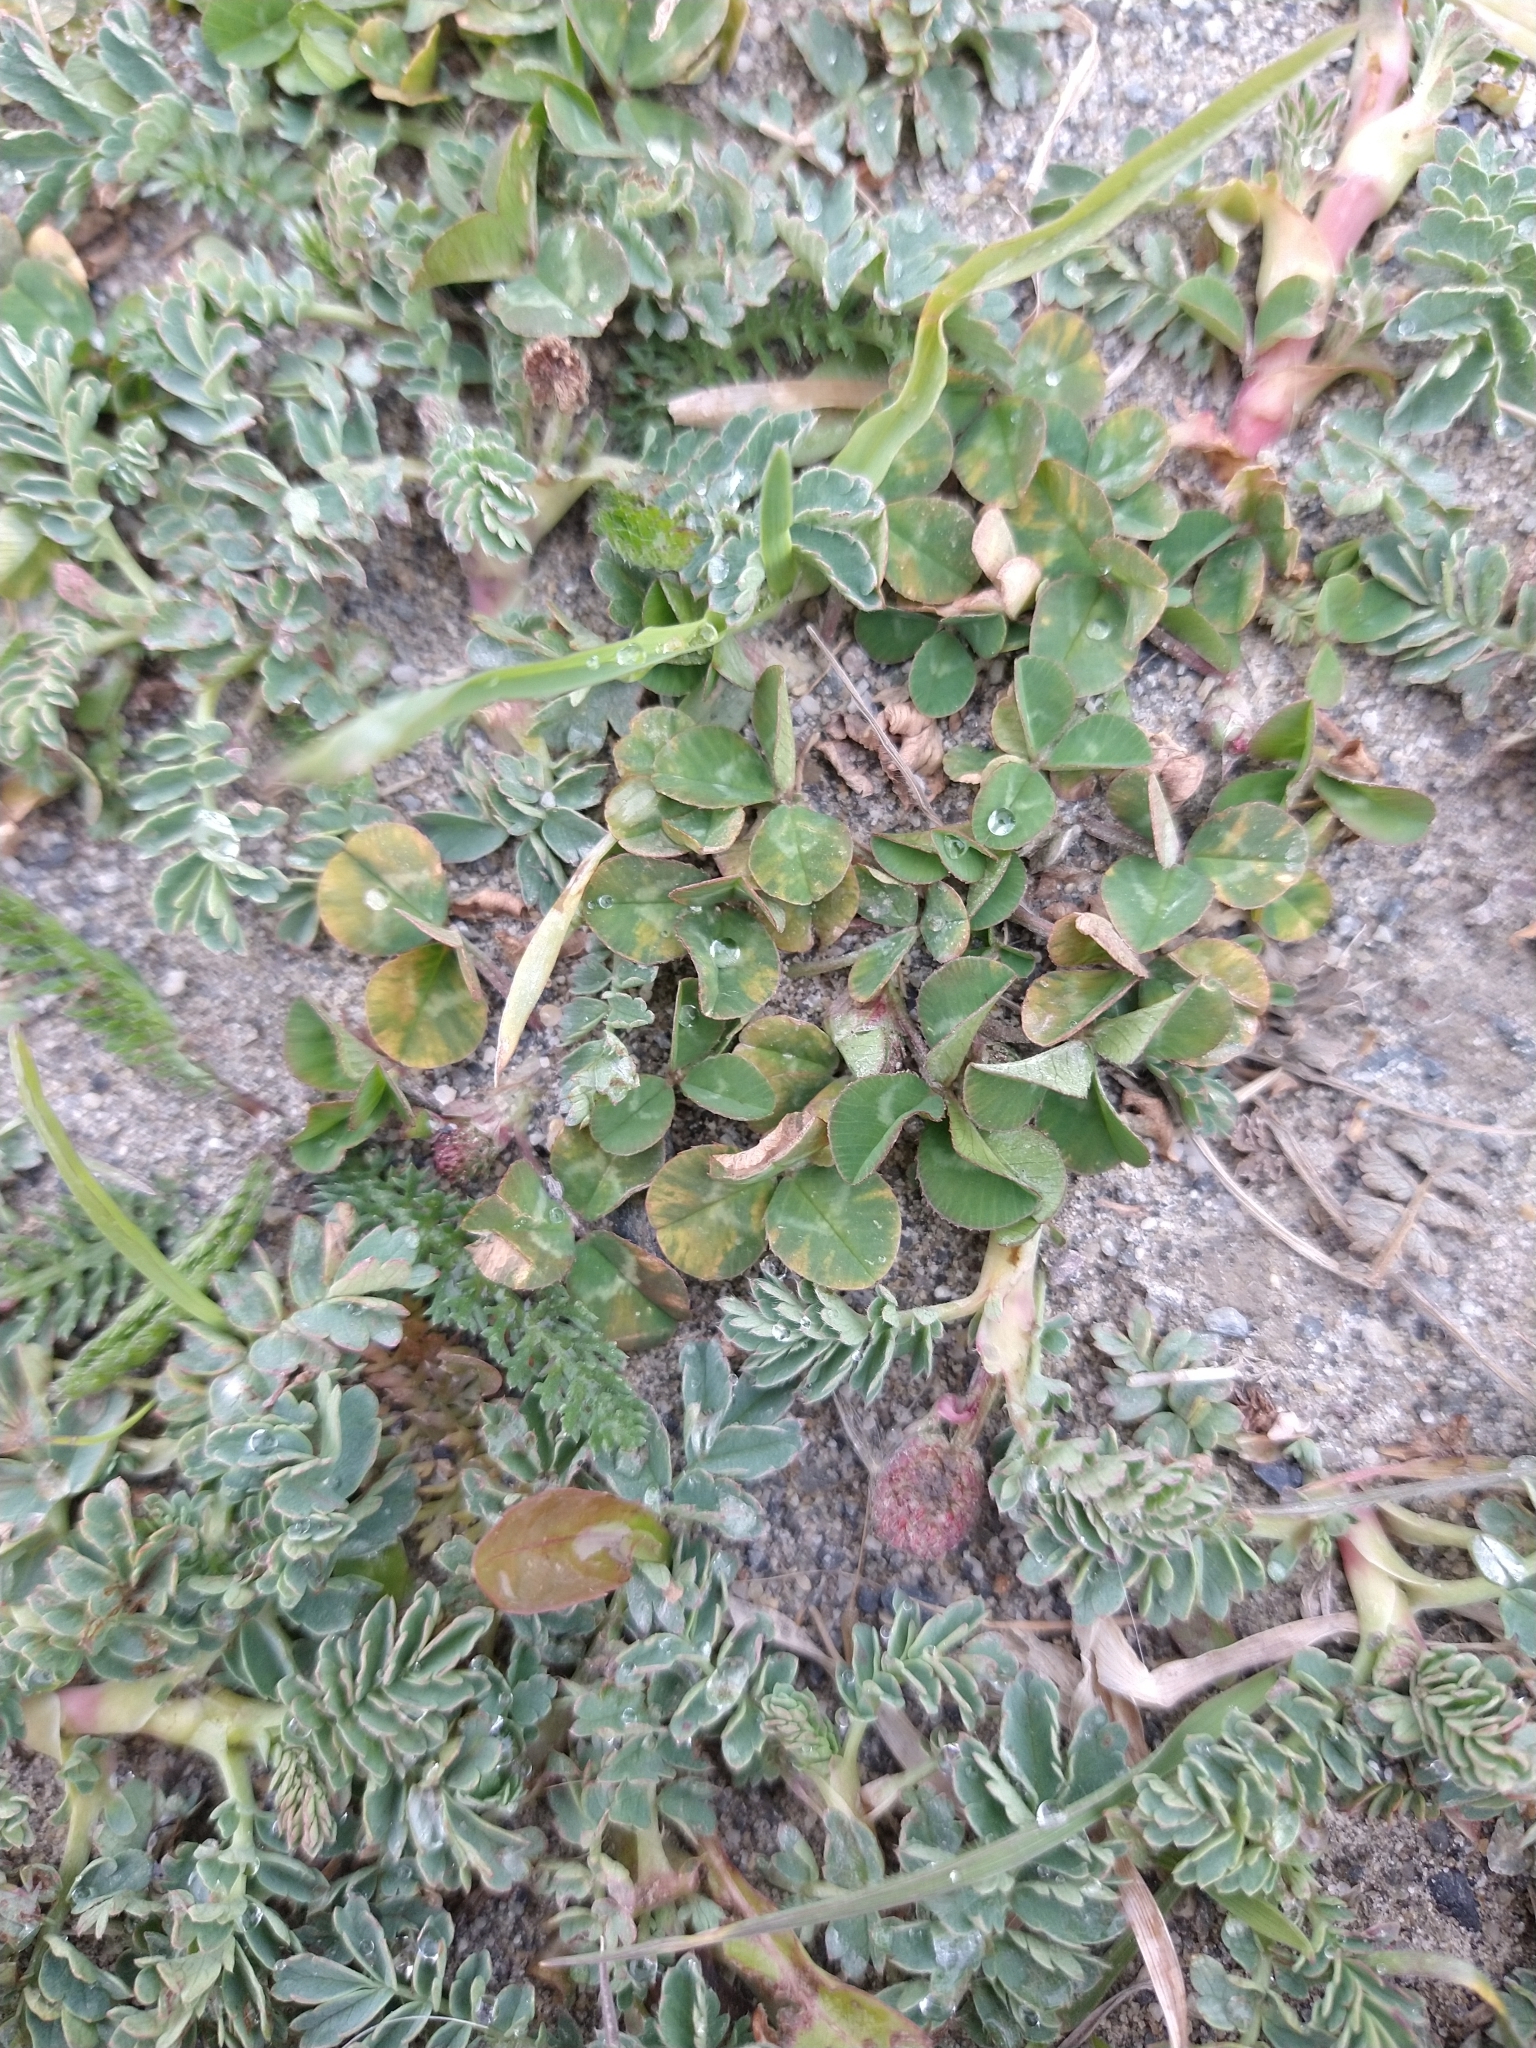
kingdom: Plantae
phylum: Tracheophyta
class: Magnoliopsida
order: Fabales
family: Fabaceae
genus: Trifolium
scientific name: Trifolium repens
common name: White clover
